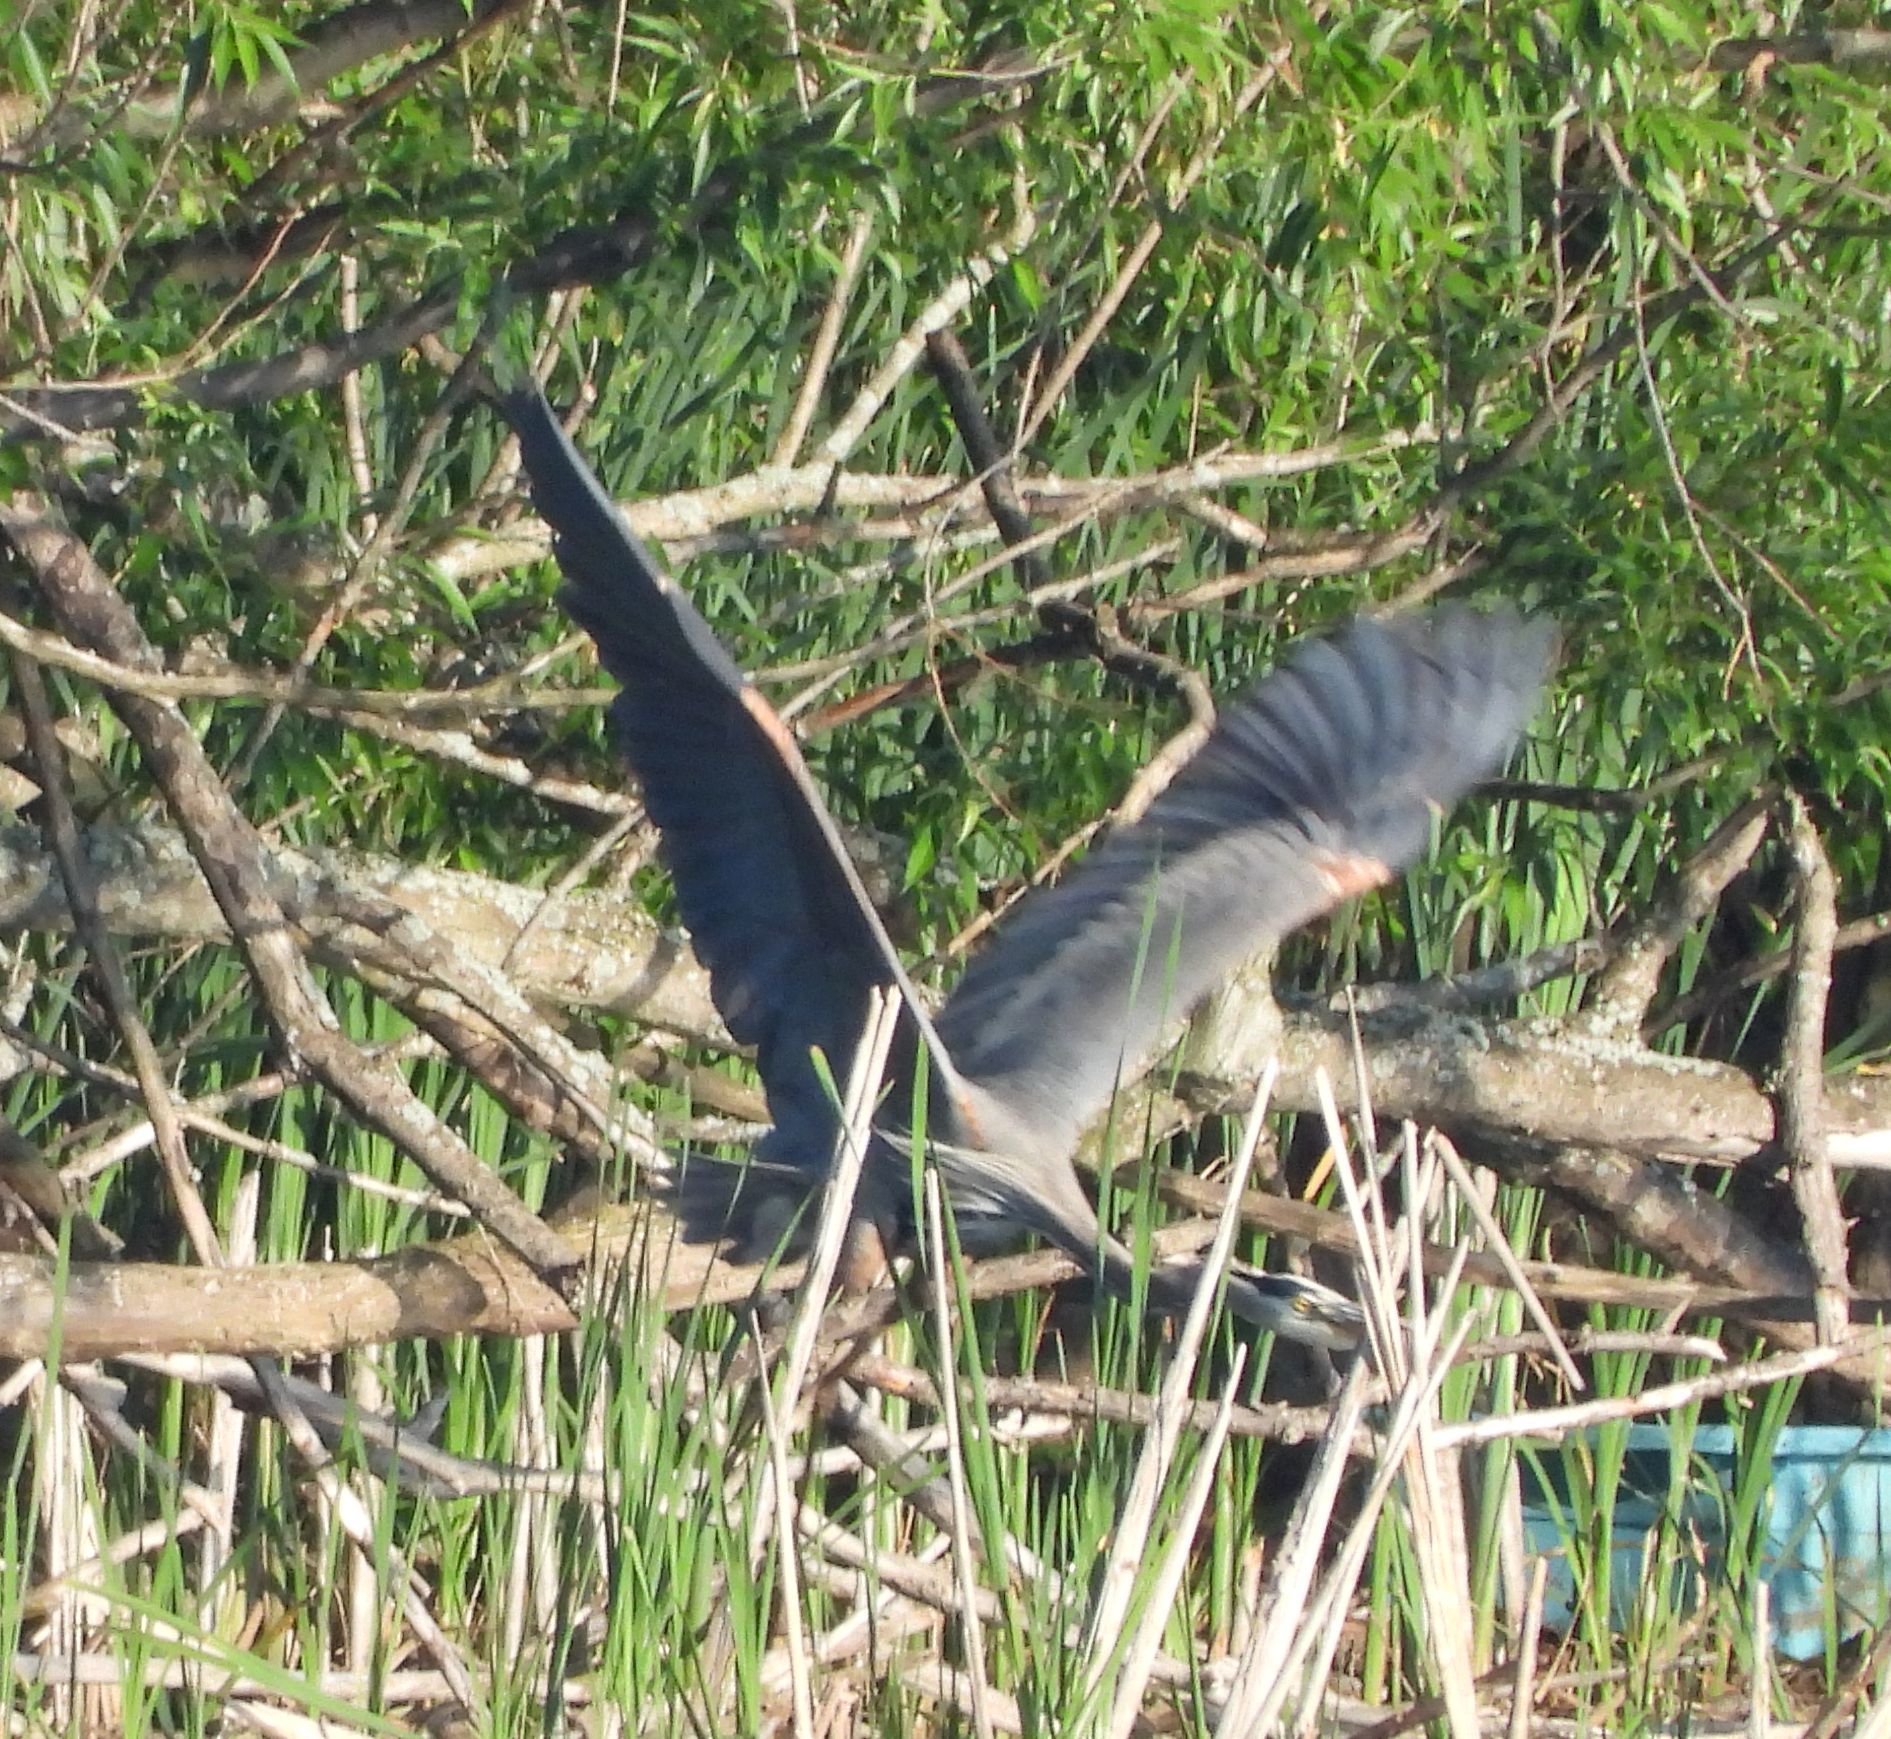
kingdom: Animalia
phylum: Chordata
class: Aves
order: Pelecaniformes
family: Ardeidae
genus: Ardea
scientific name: Ardea herodias
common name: Great blue heron
